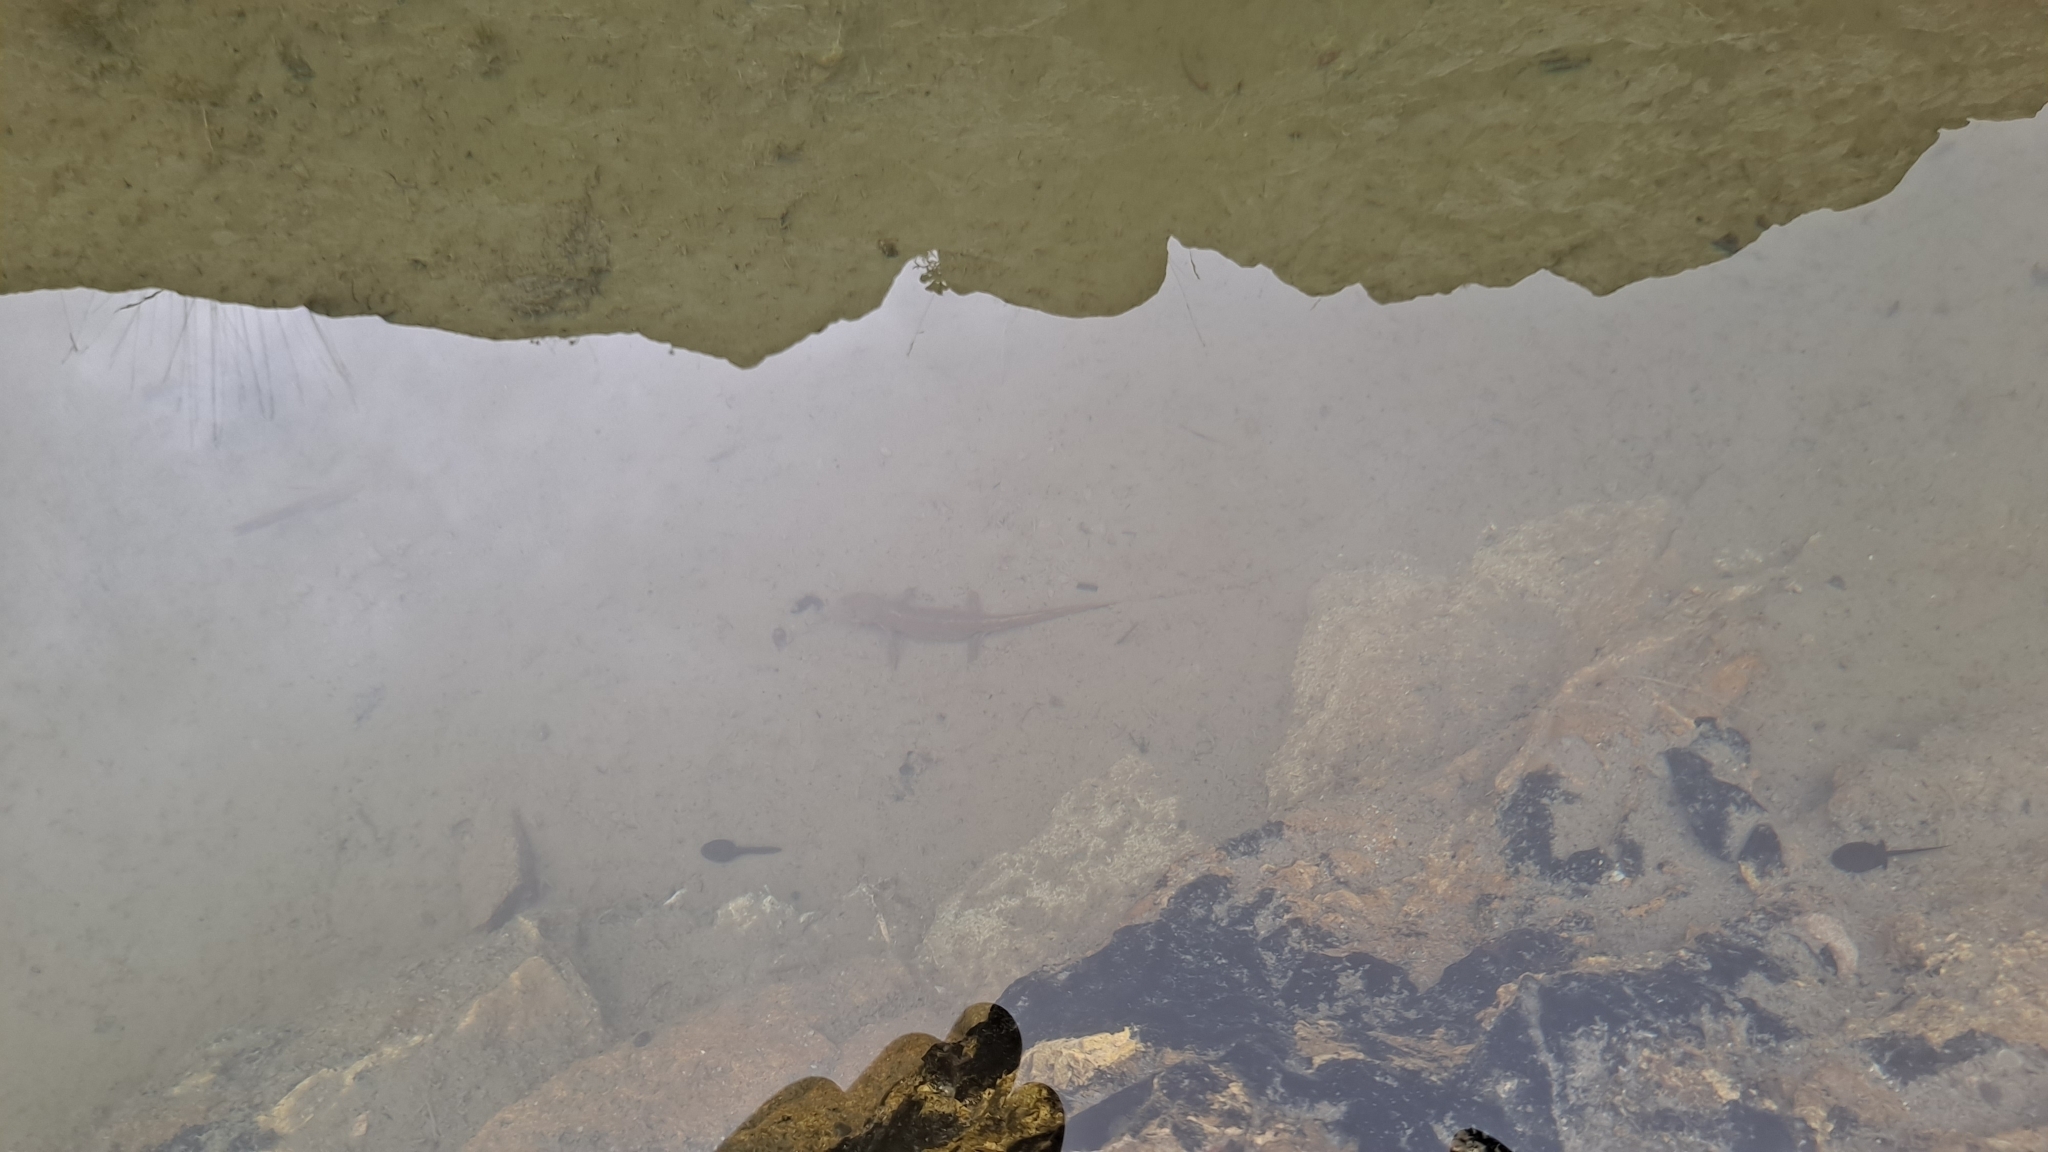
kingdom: Animalia
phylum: Chordata
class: Amphibia
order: Caudata
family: Salamandridae
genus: Calotriton
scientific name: Calotriton asper
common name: Pyrenean brook salamander
